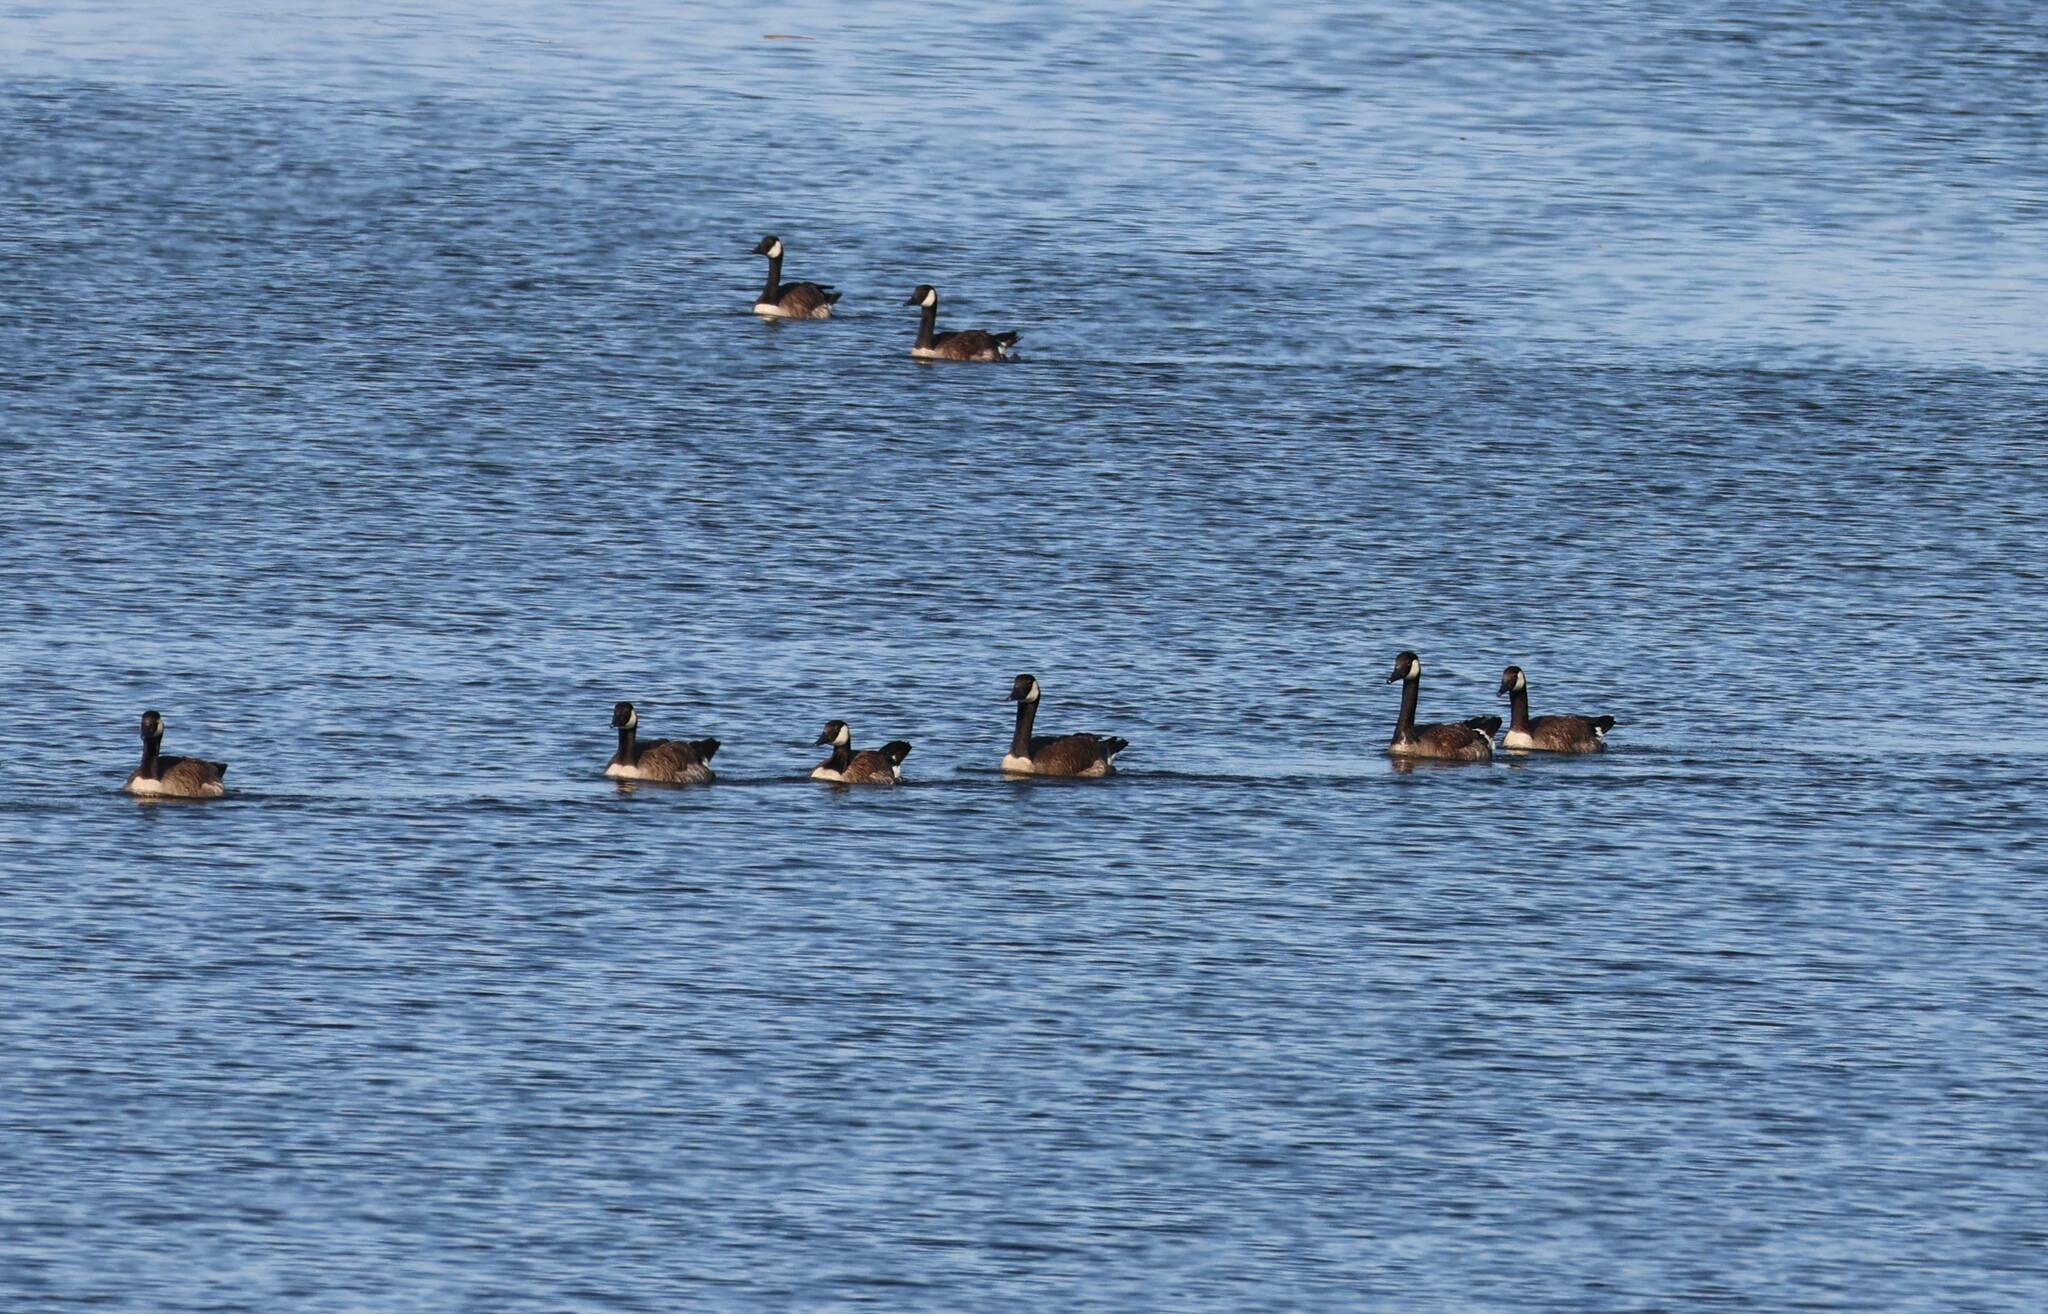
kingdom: Animalia
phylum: Chordata
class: Aves
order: Anseriformes
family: Anatidae
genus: Branta
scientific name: Branta canadensis
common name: Canada goose
